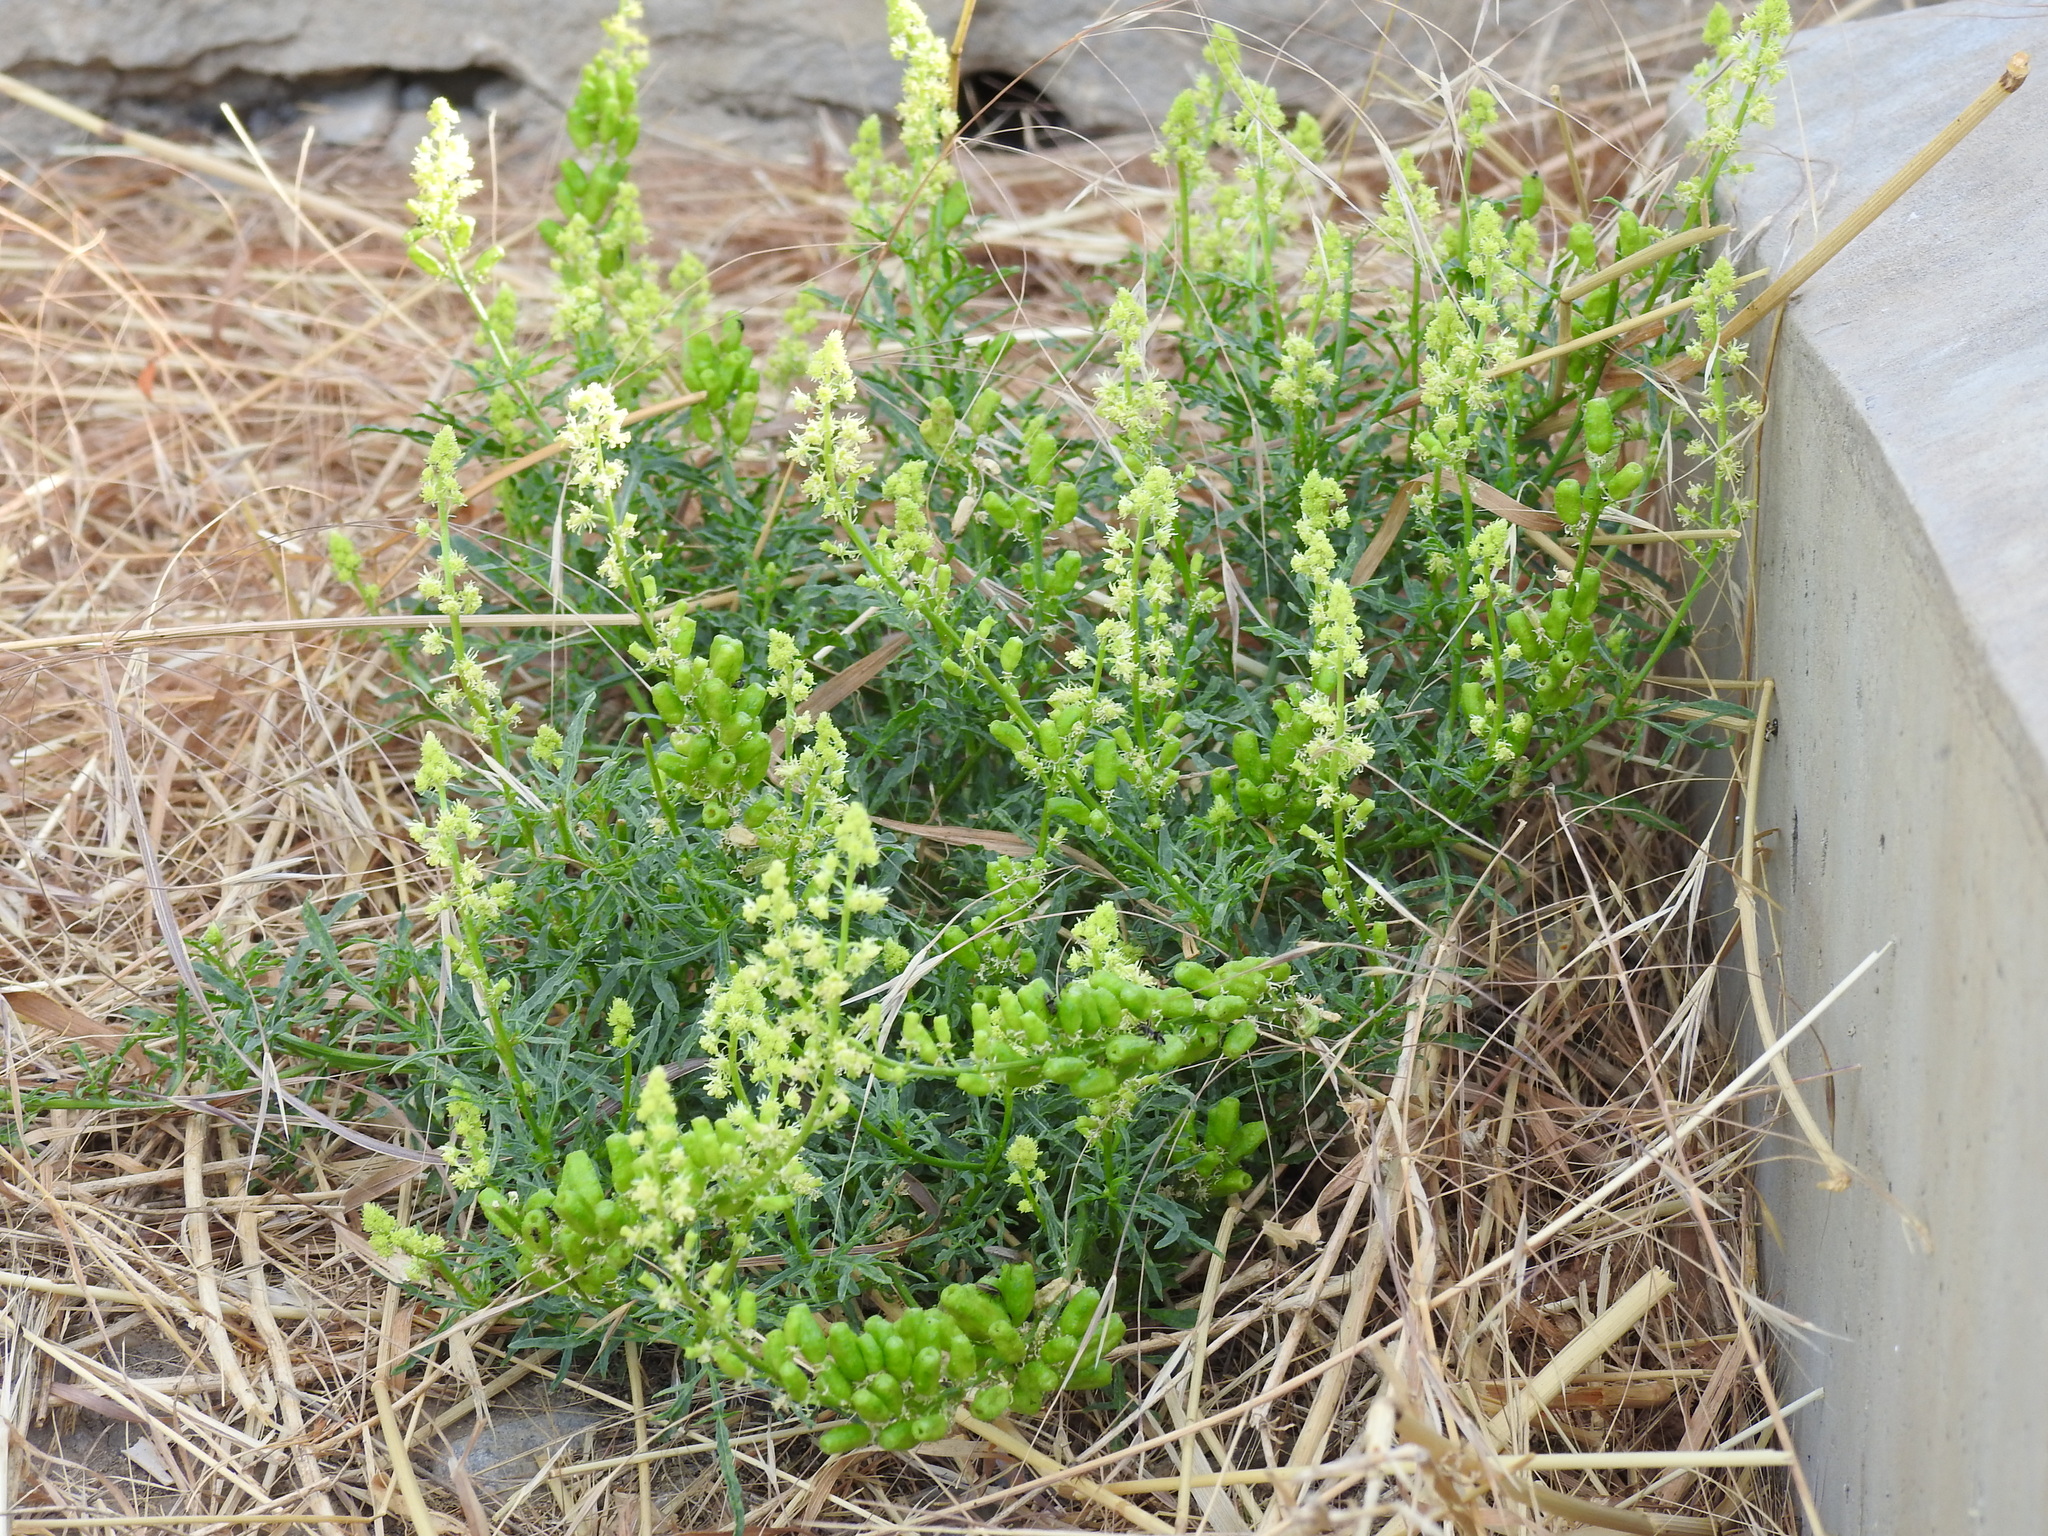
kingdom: Plantae
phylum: Tracheophyta
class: Magnoliopsida
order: Brassicales
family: Resedaceae
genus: Reseda
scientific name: Reseda lutea
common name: Wild mignonette
